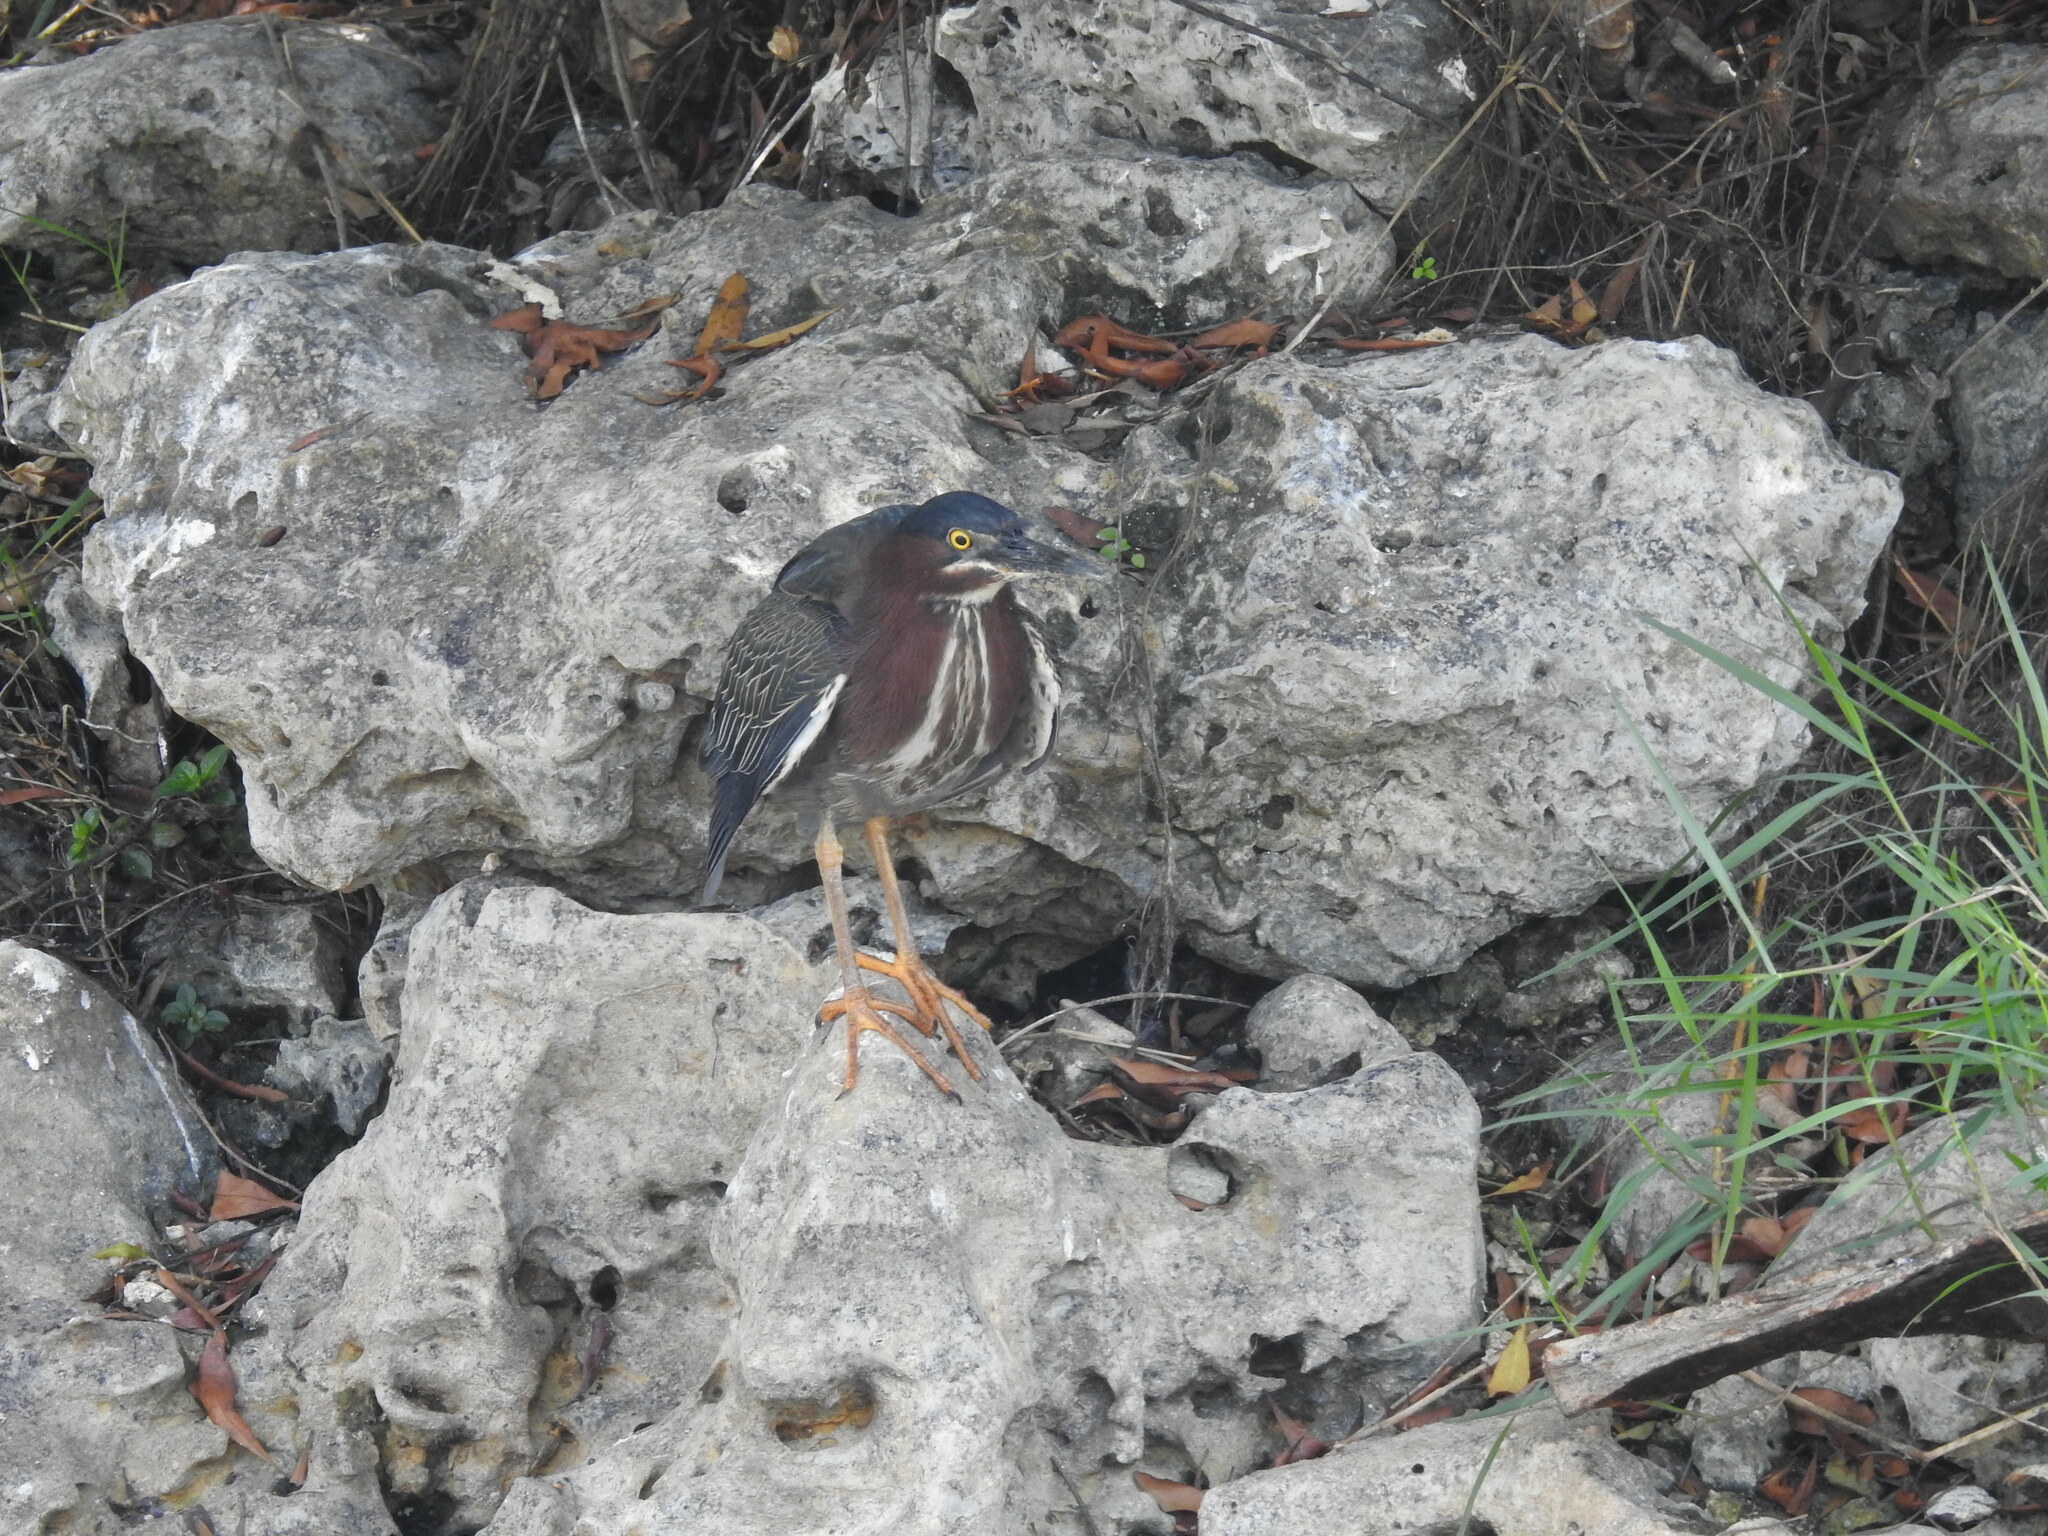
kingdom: Animalia
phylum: Chordata
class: Aves
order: Pelecaniformes
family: Ardeidae
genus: Butorides
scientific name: Butorides virescens
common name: Green heron
